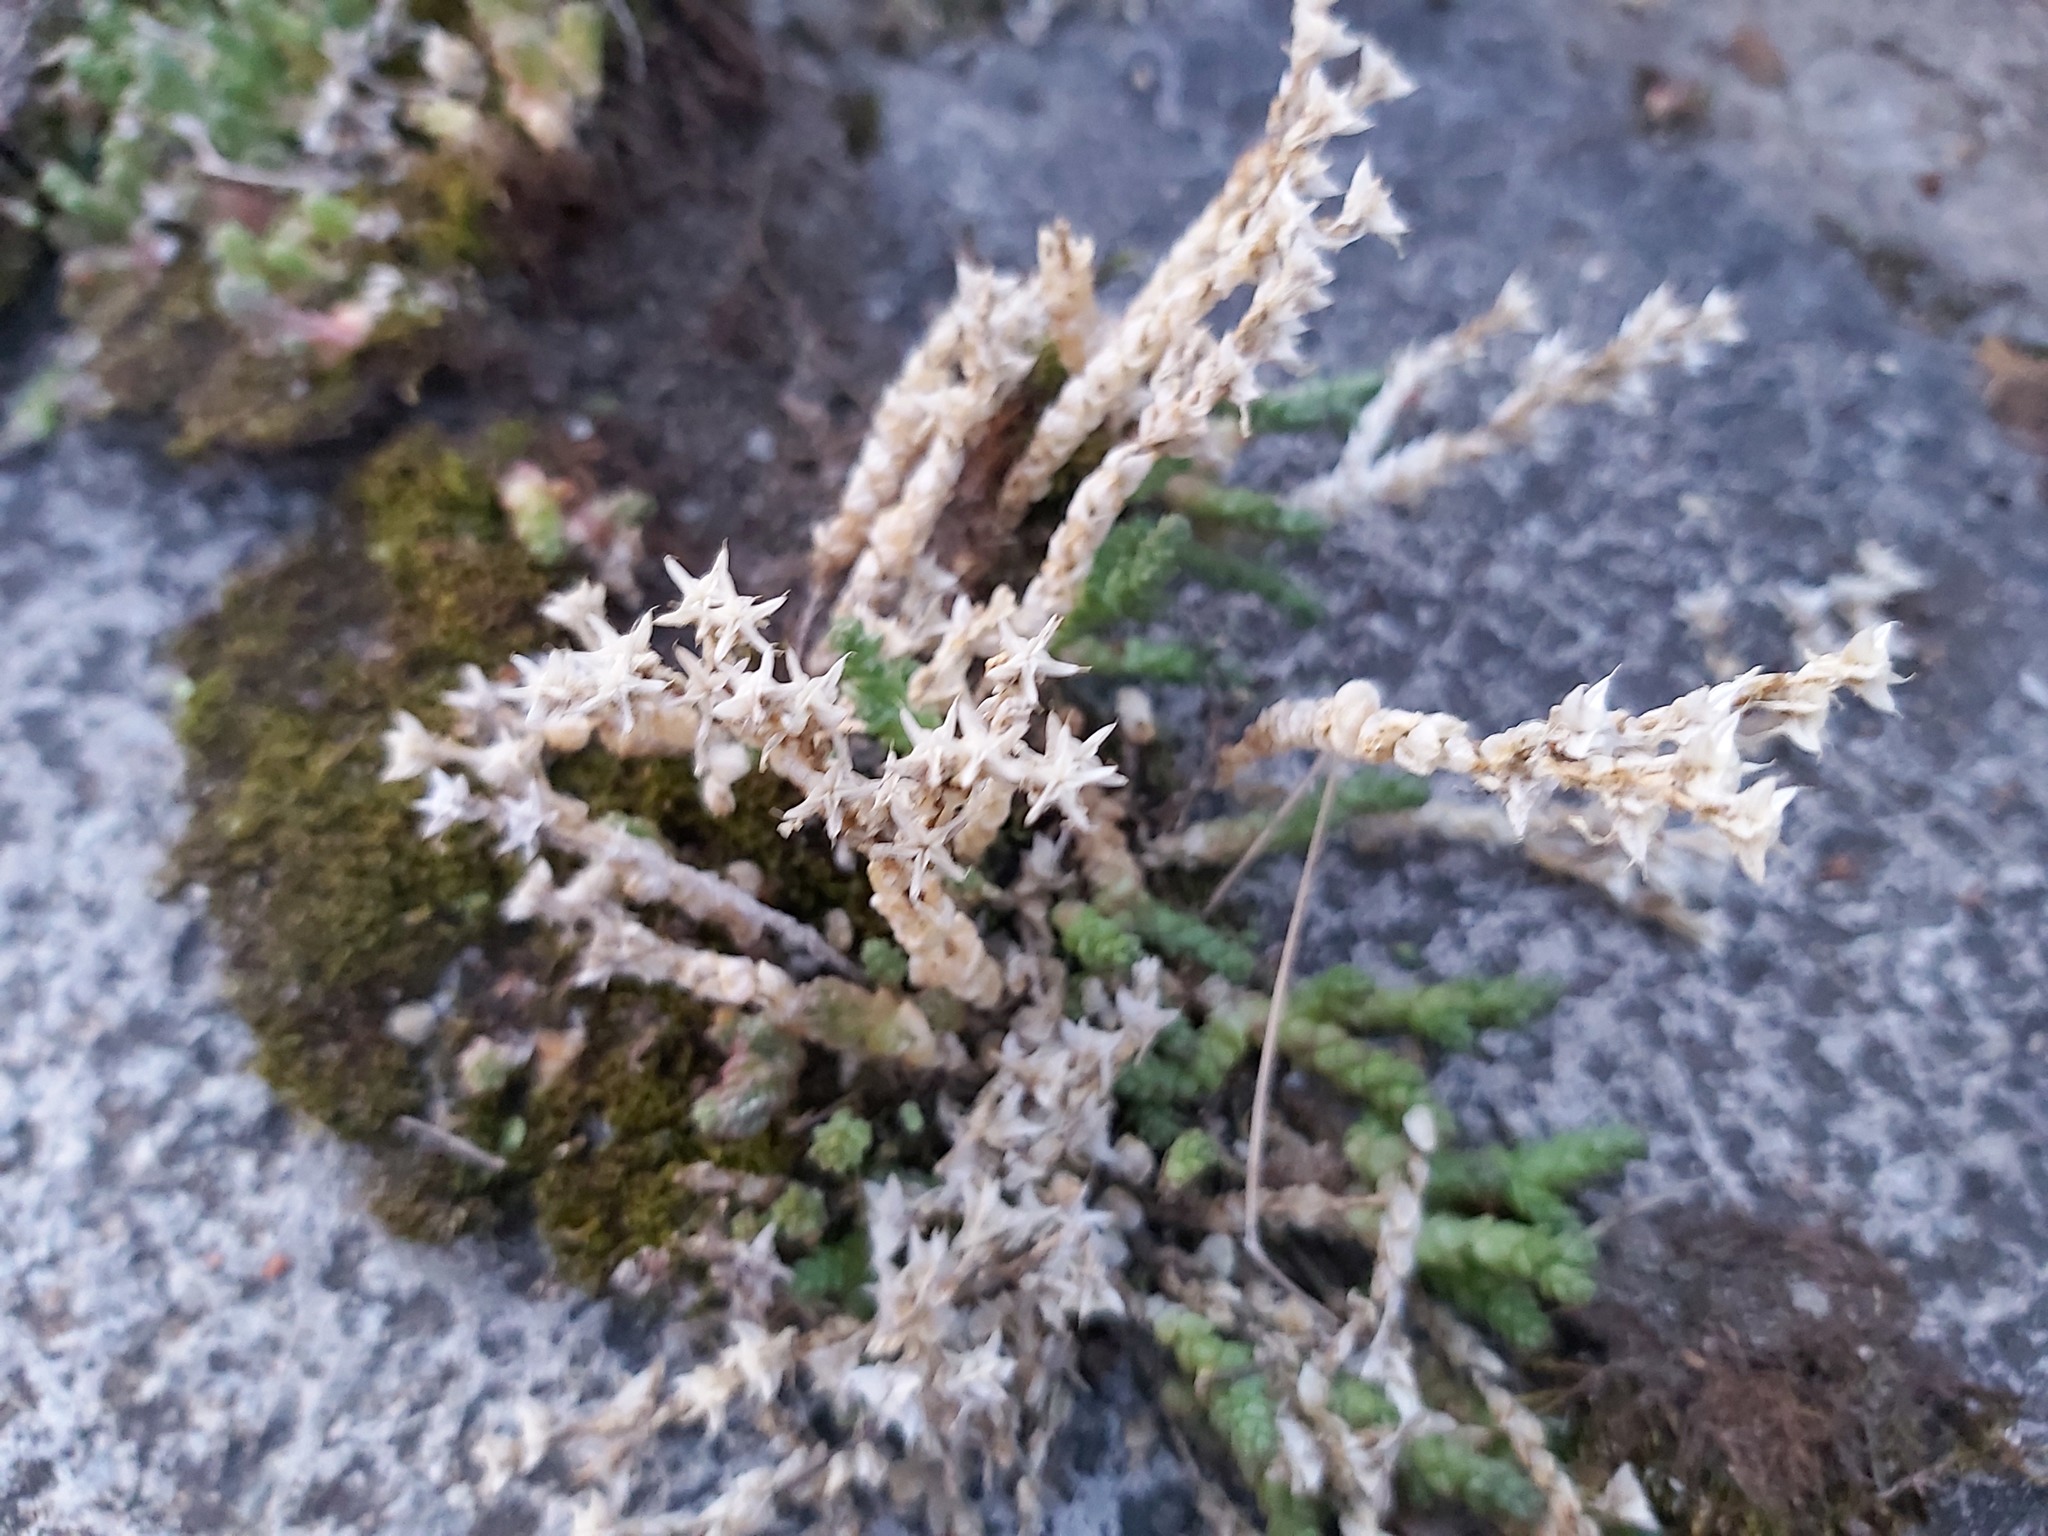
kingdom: Plantae
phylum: Tracheophyta
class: Magnoliopsida
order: Saxifragales
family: Crassulaceae
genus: Sedum
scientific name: Sedum acre
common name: Biting stonecrop
